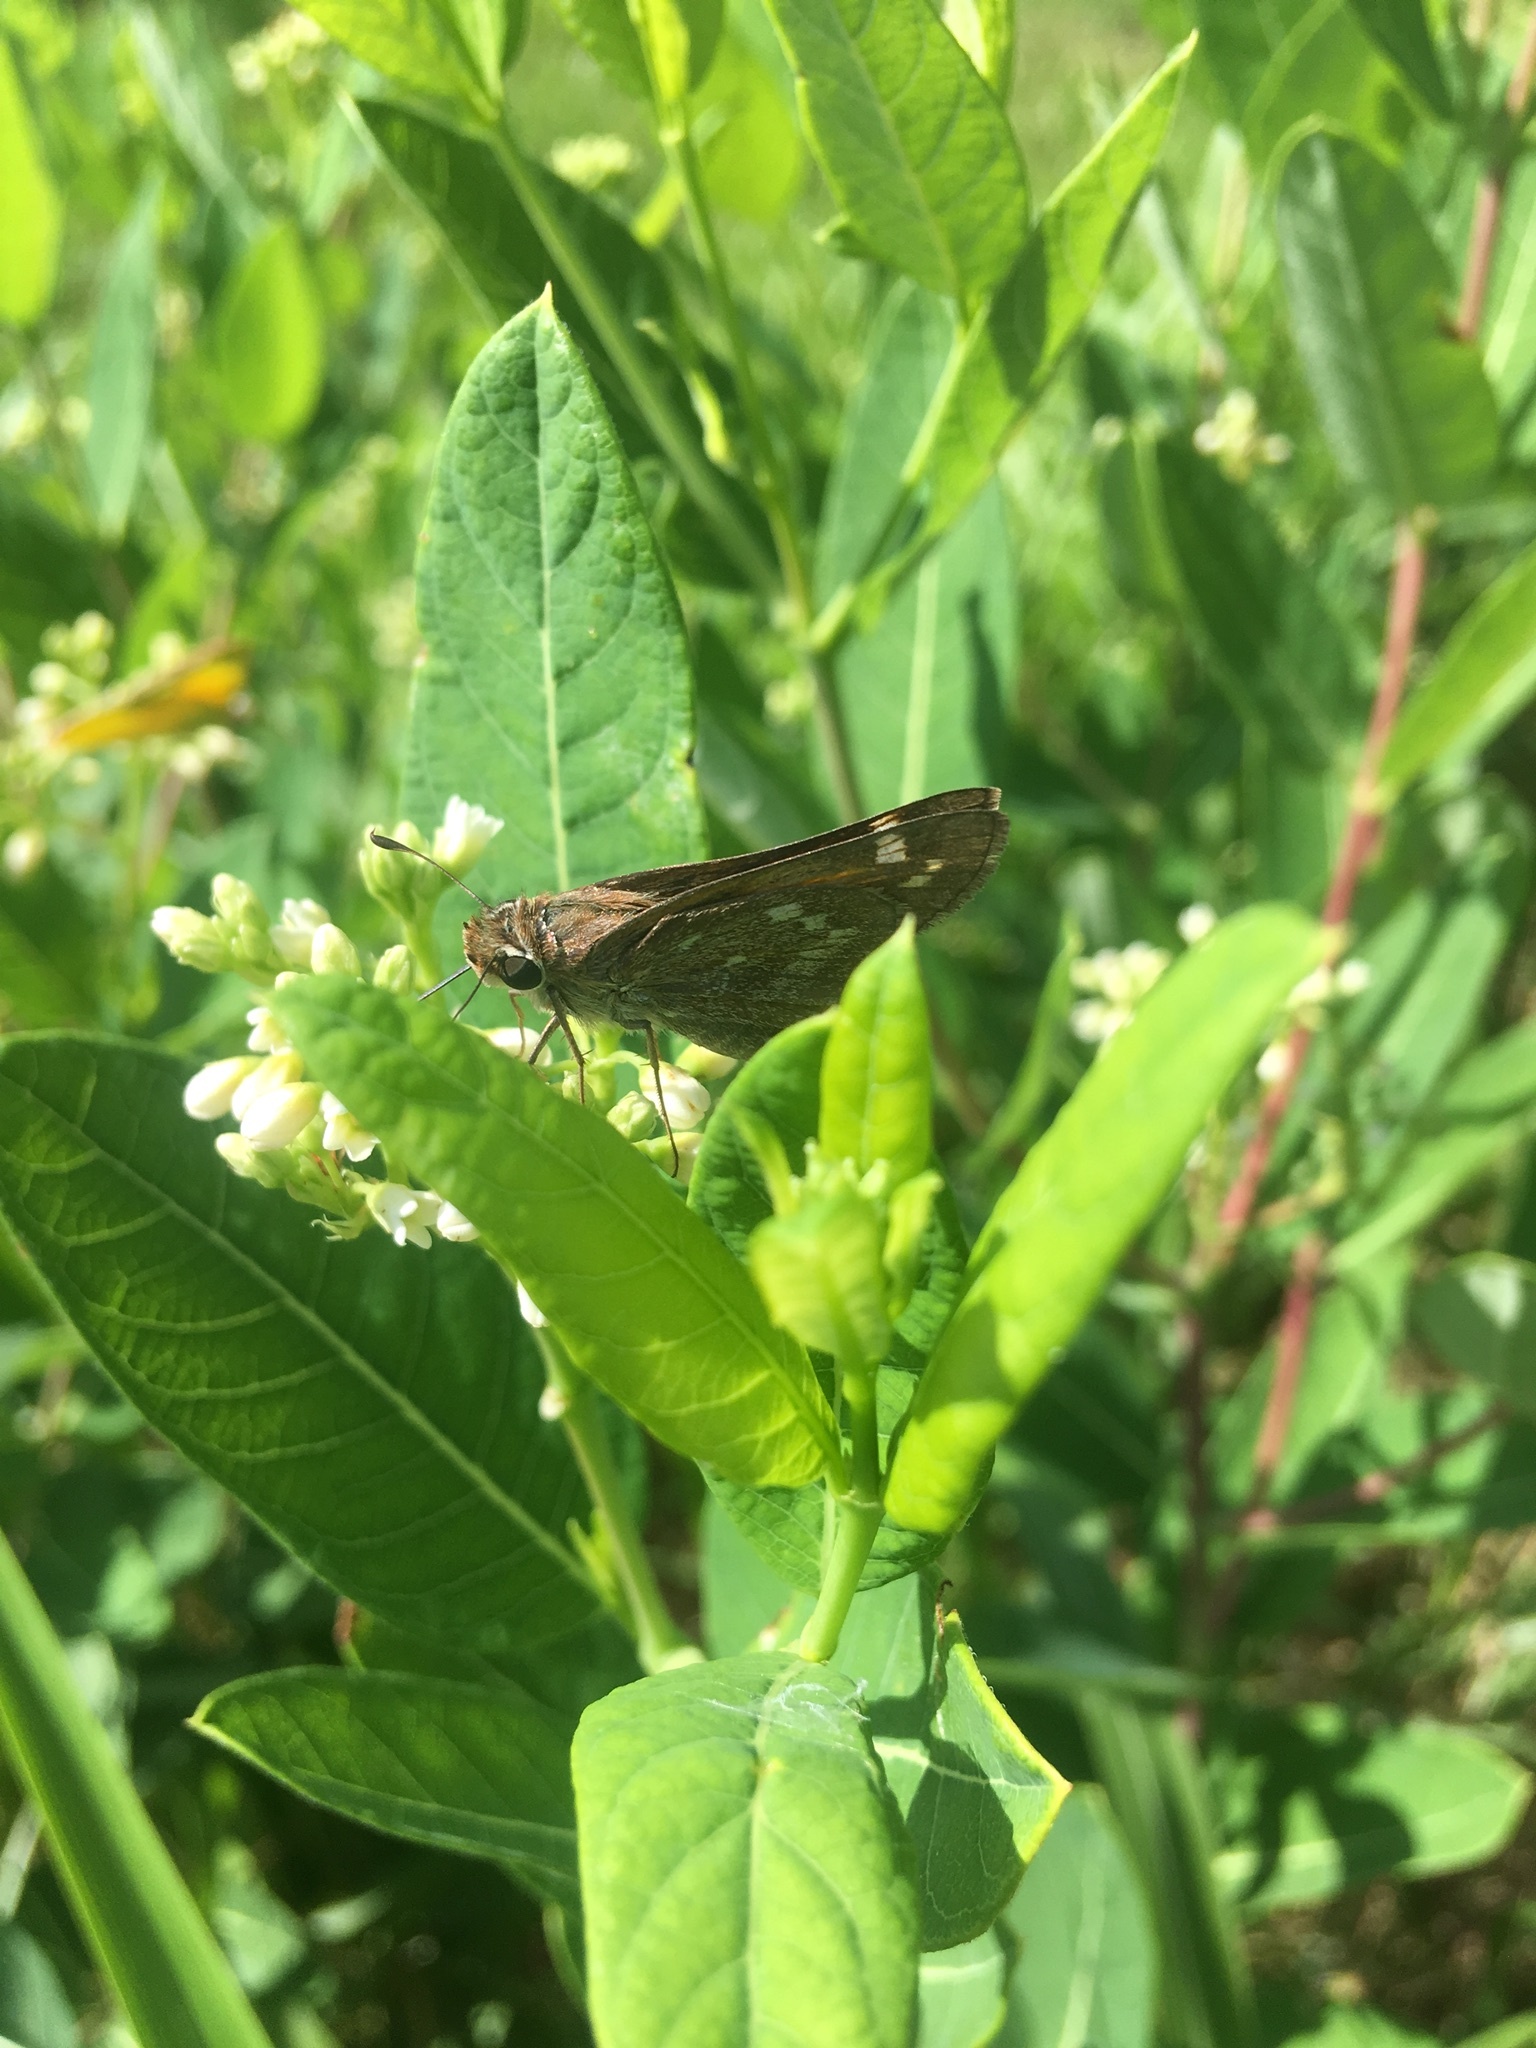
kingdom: Animalia
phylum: Arthropoda
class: Insecta
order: Lepidoptera
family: Hesperiidae
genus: Atalopedes
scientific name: Atalopedes
